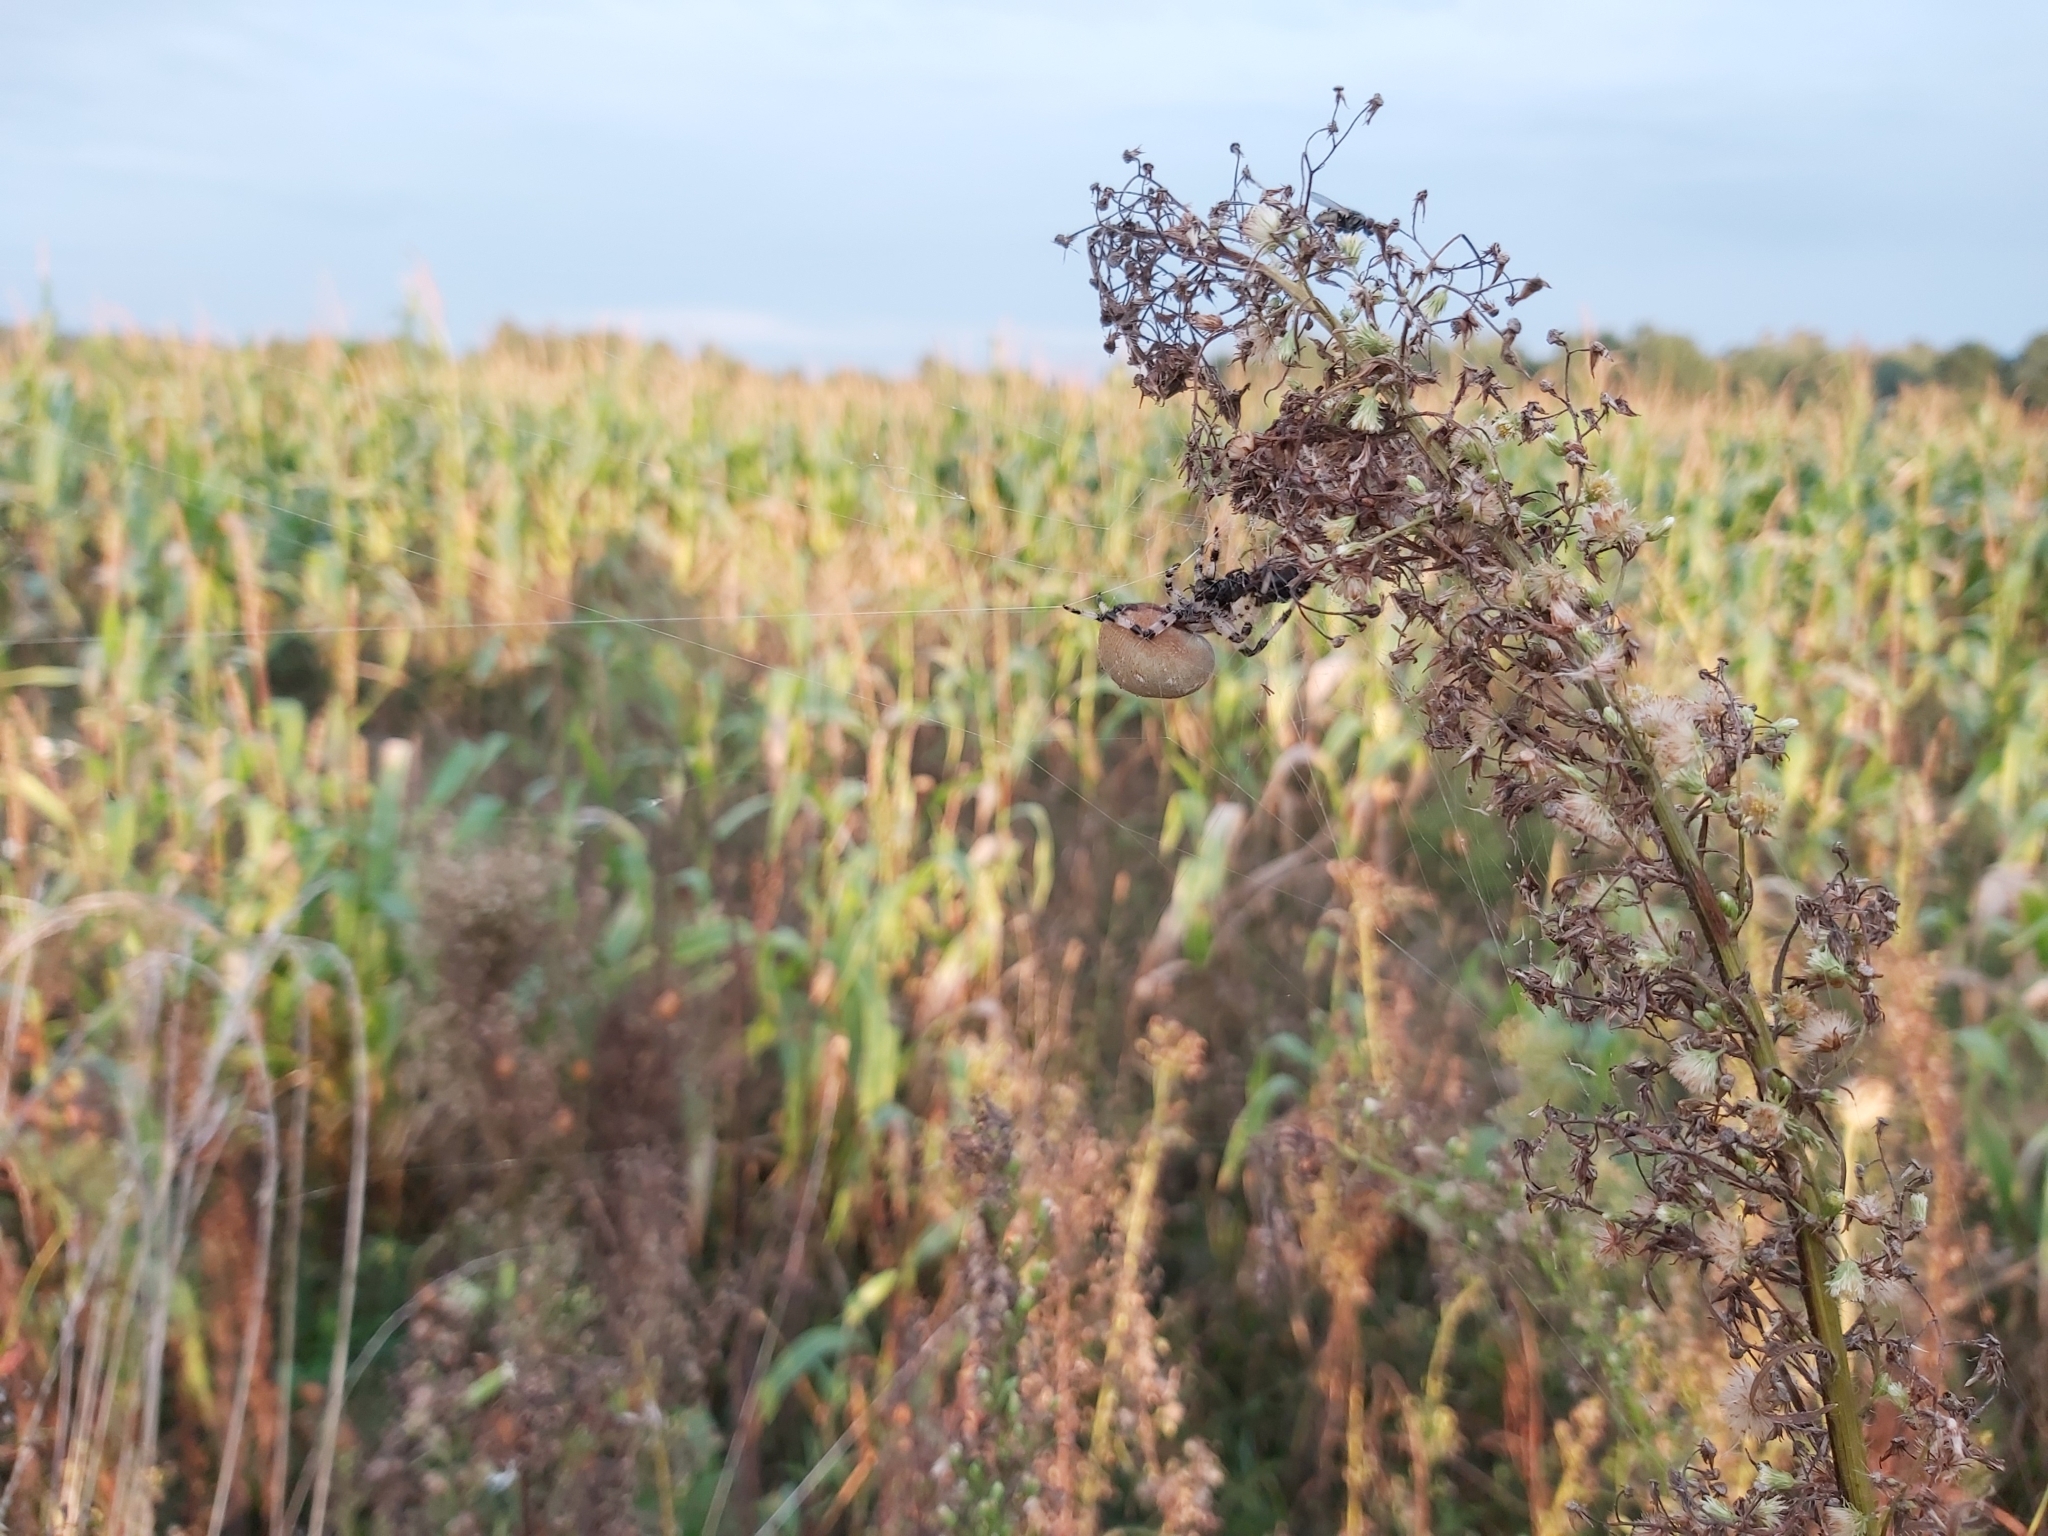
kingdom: Animalia
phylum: Arthropoda
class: Arachnida
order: Araneae
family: Araneidae
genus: Araneus
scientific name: Araneus quadratus
